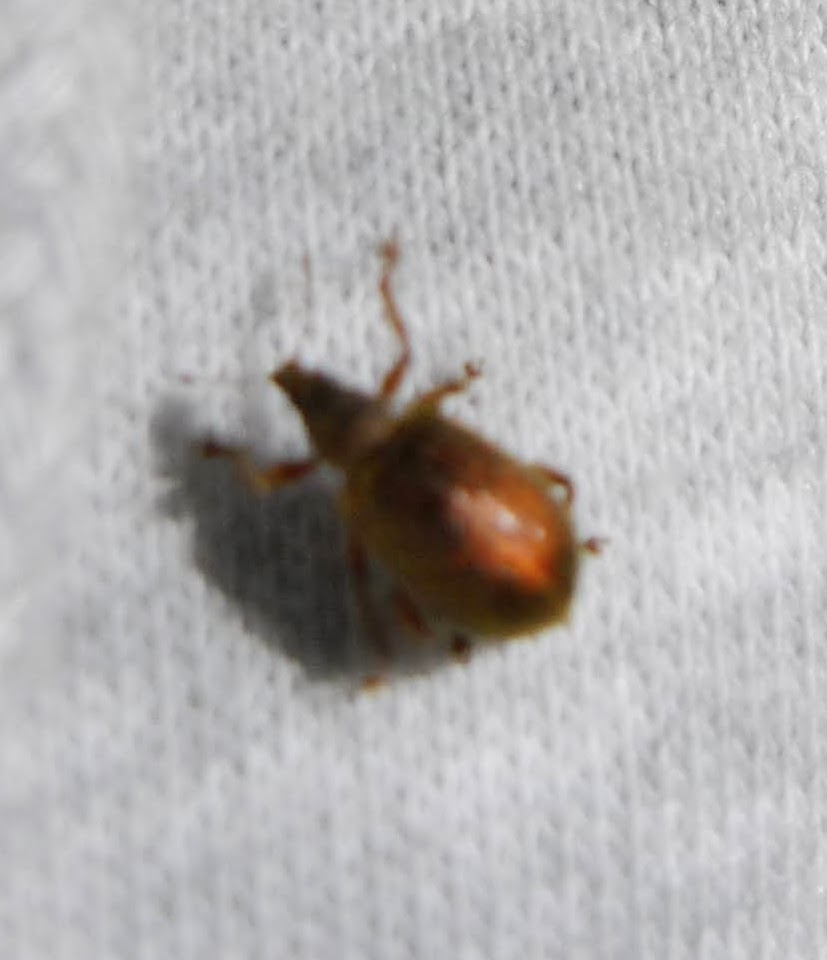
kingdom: Animalia
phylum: Arthropoda
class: Insecta
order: Coleoptera
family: Curculionidae
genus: Polydrusus
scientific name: Polydrusus mollis
